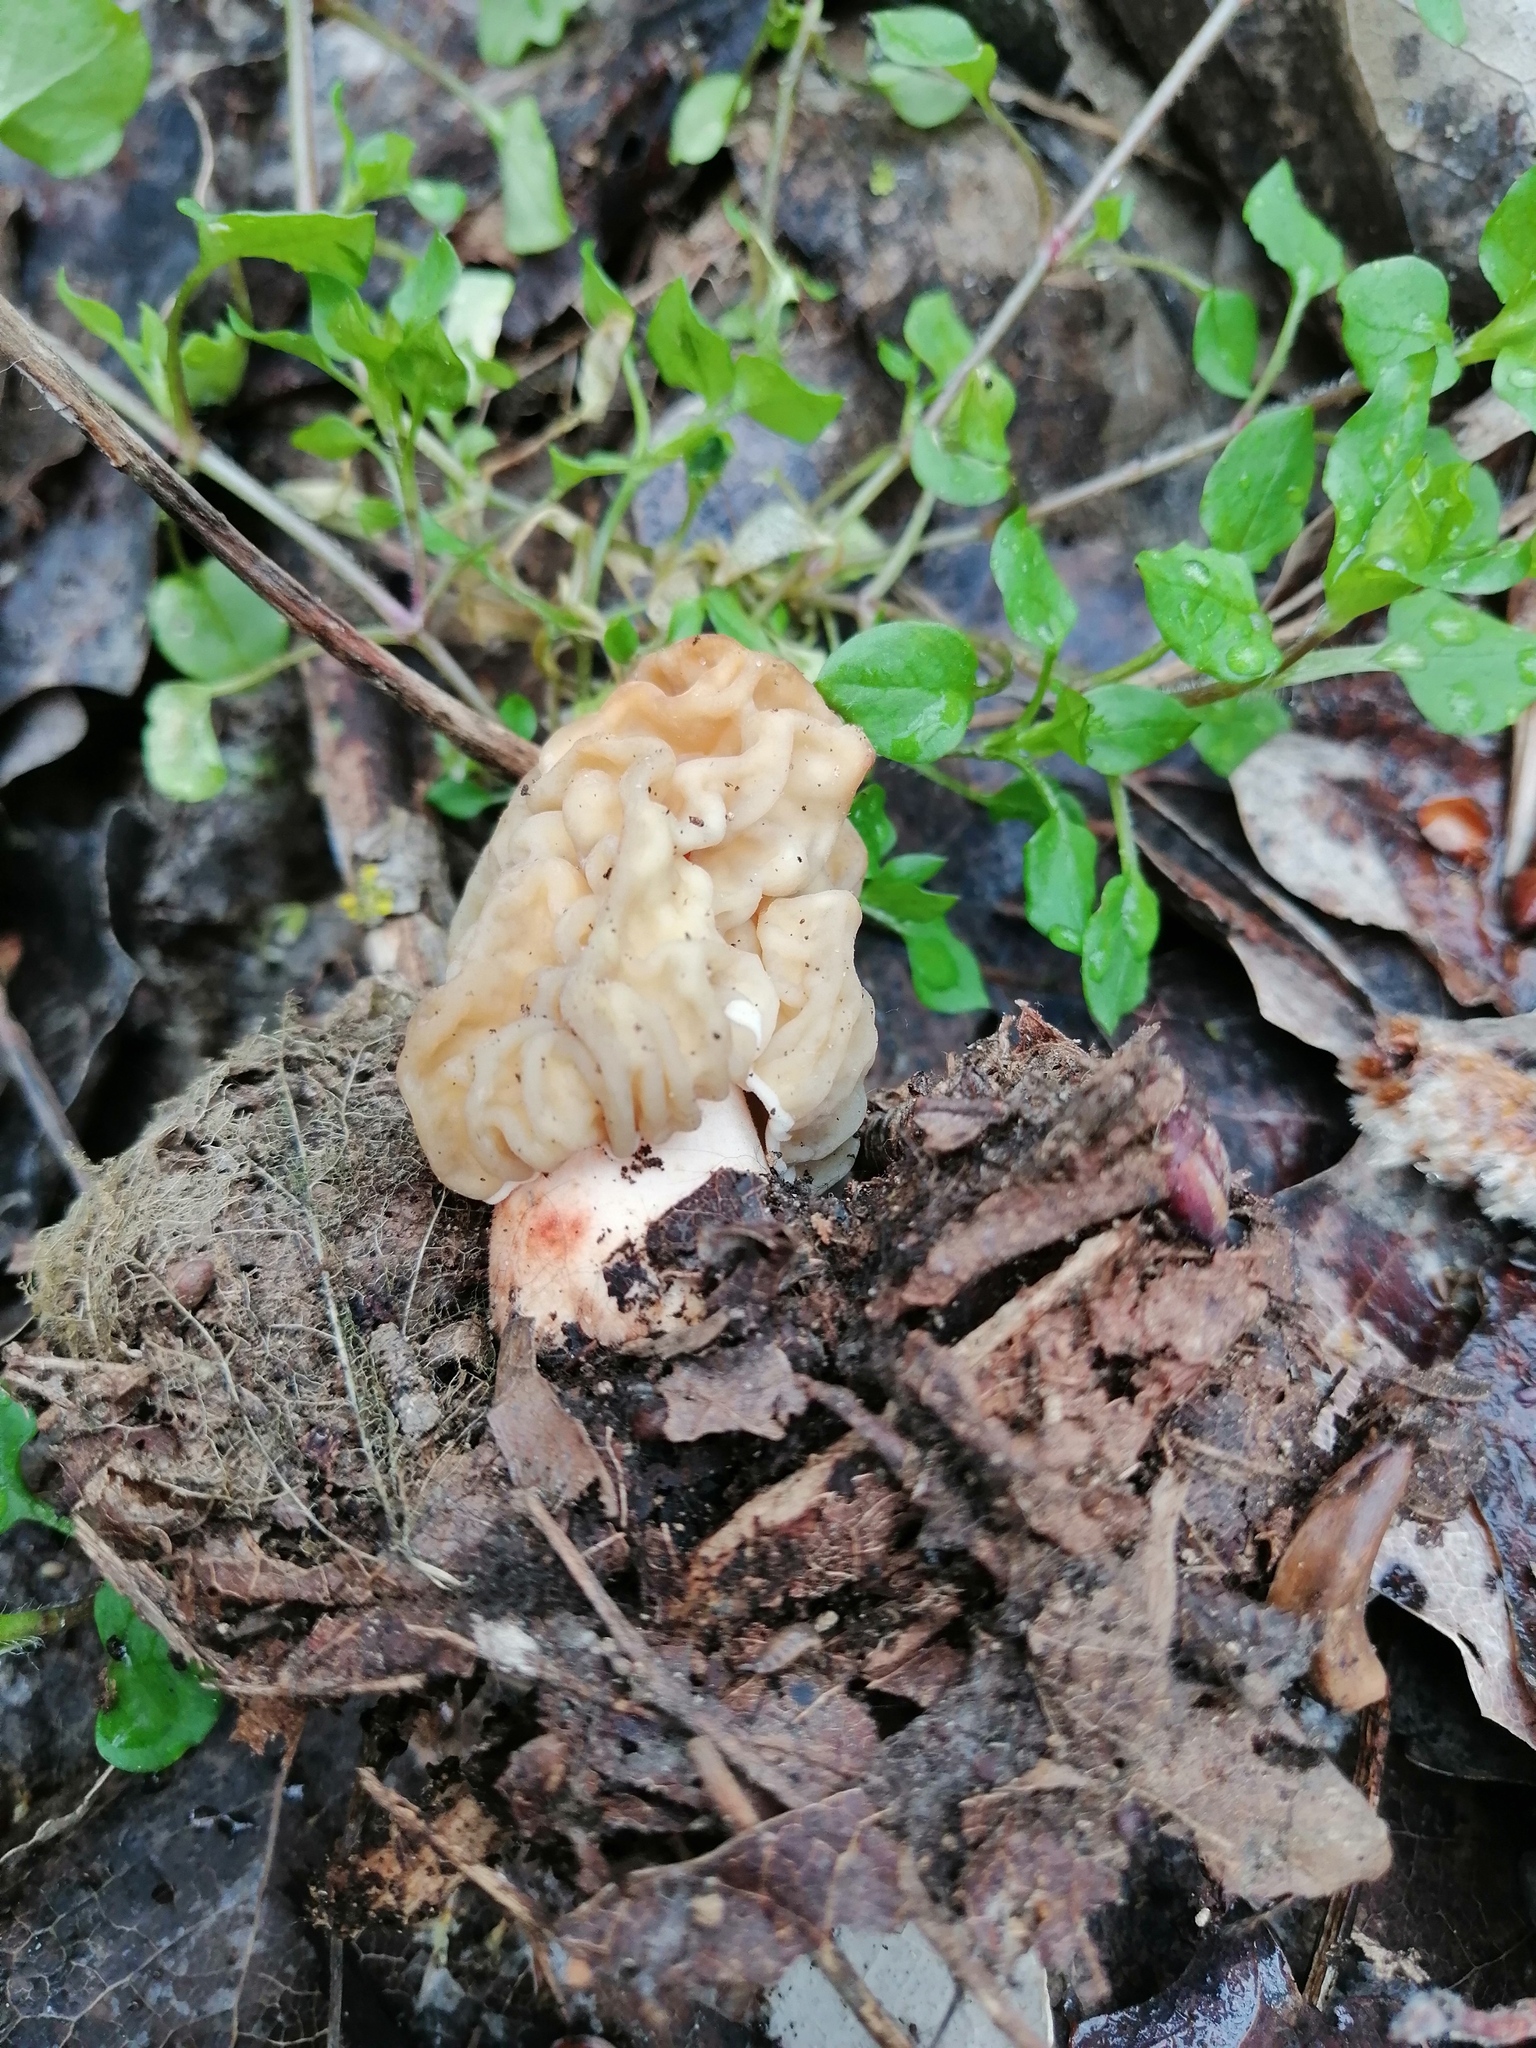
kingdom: Fungi
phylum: Ascomycota
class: Pezizomycetes
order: Pezizales
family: Morchellaceae
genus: Verpa
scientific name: Verpa bohemica
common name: Wrinkled thimble morel
